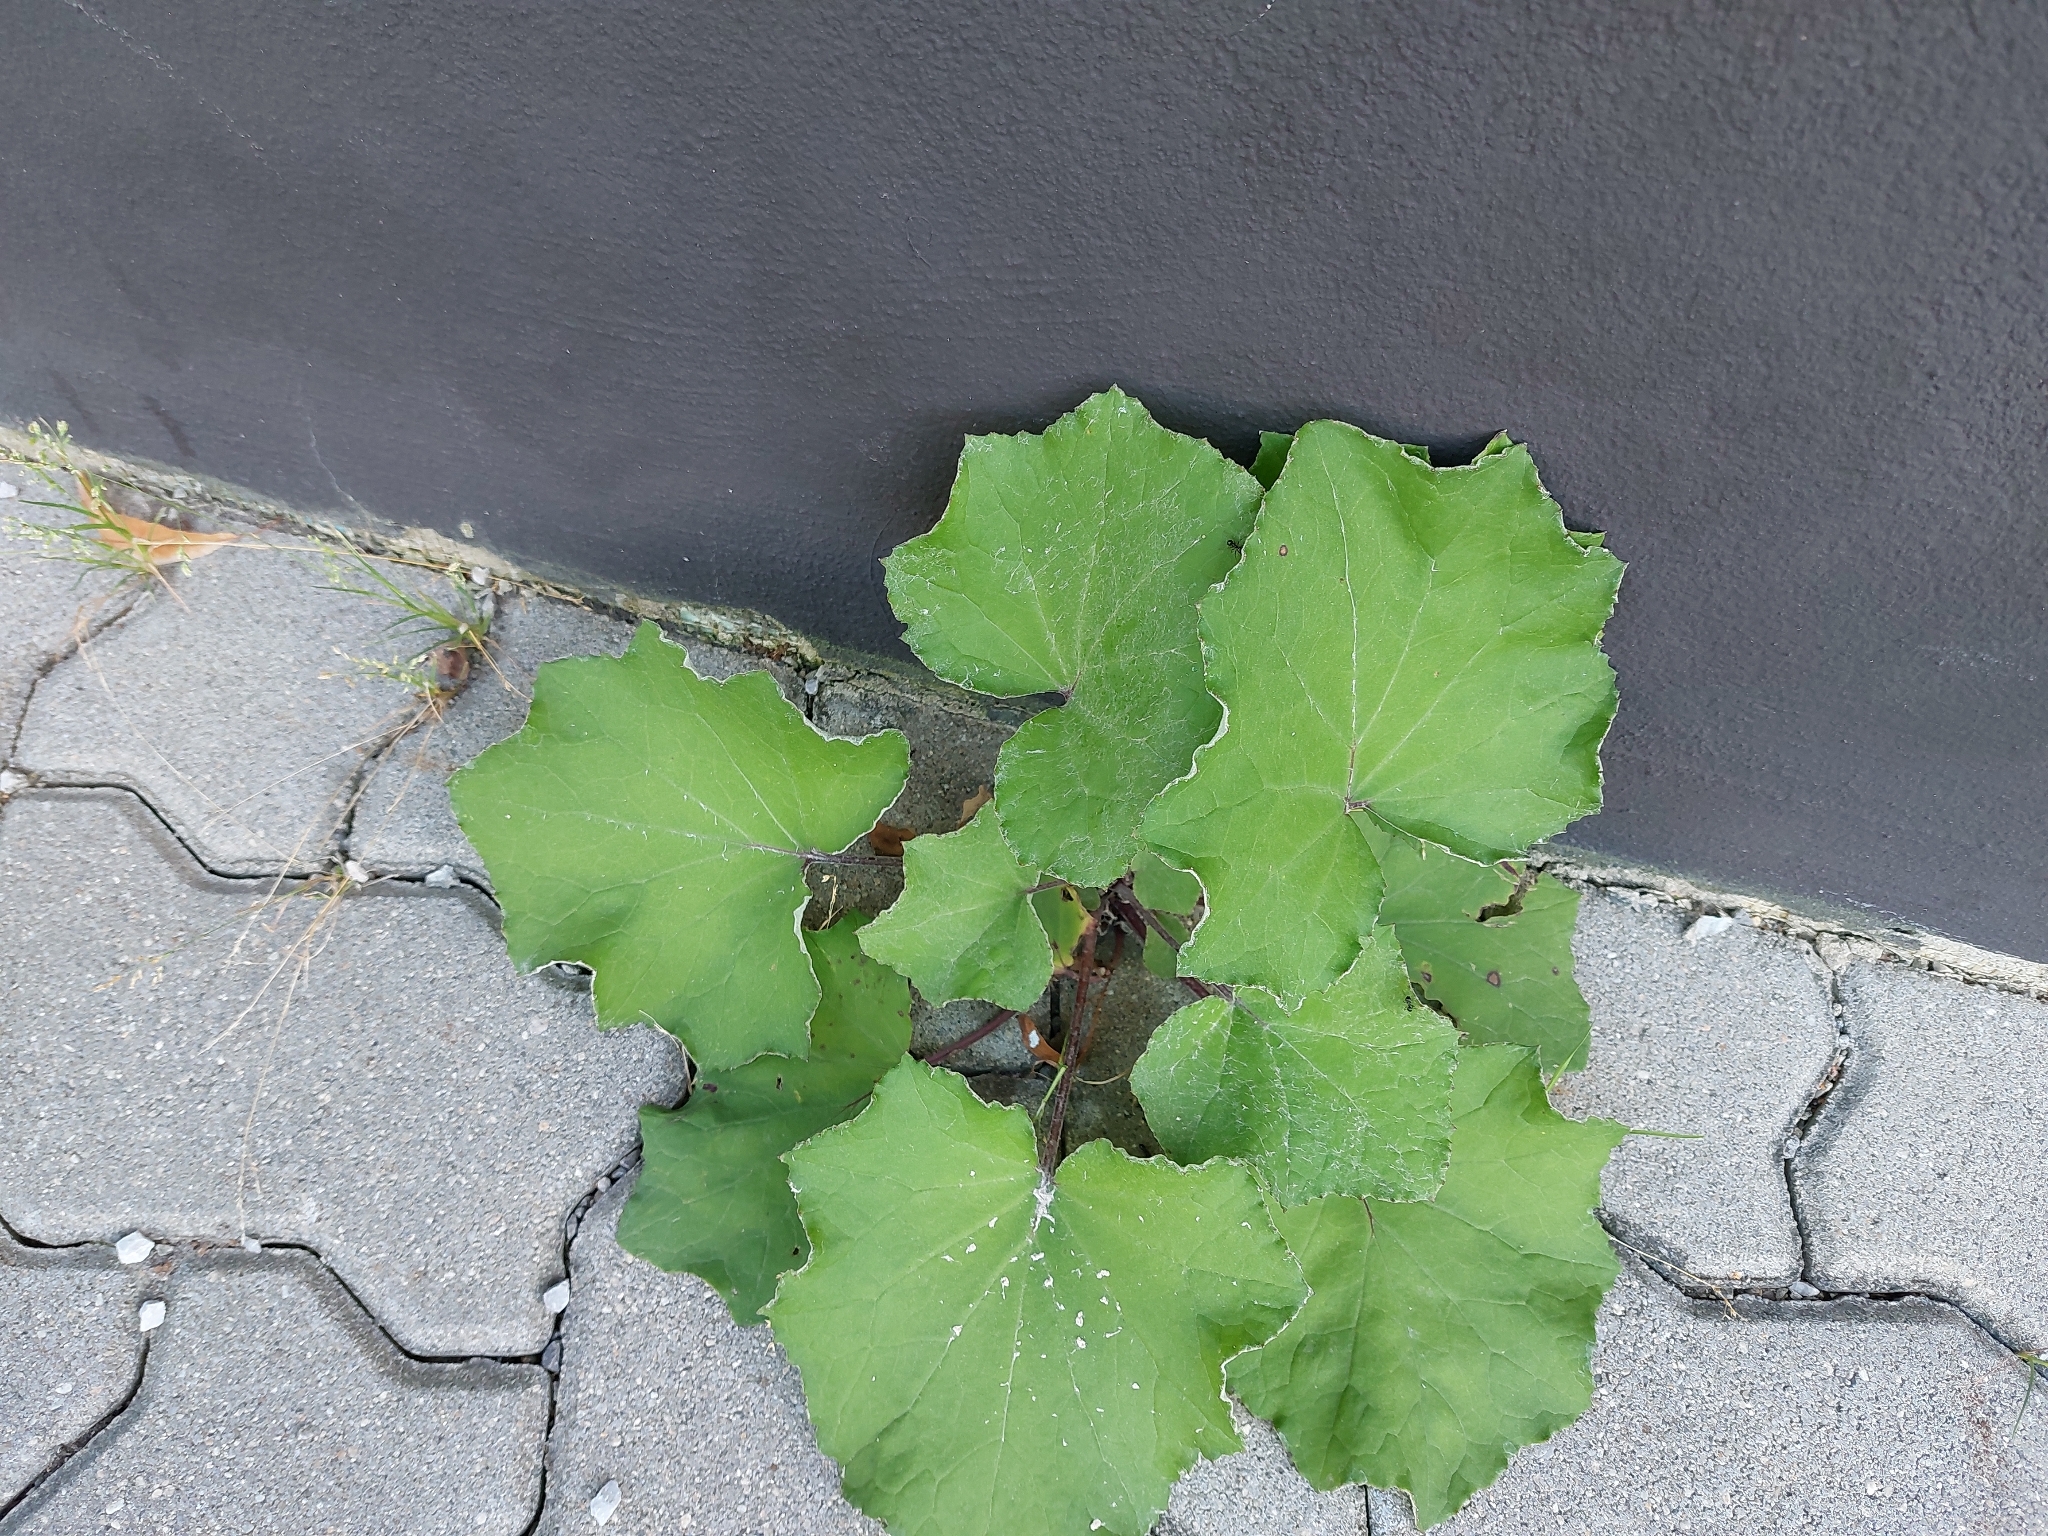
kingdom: Plantae
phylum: Tracheophyta
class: Magnoliopsida
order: Asterales
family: Asteraceae
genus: Tussilago
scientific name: Tussilago farfara
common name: Coltsfoot
